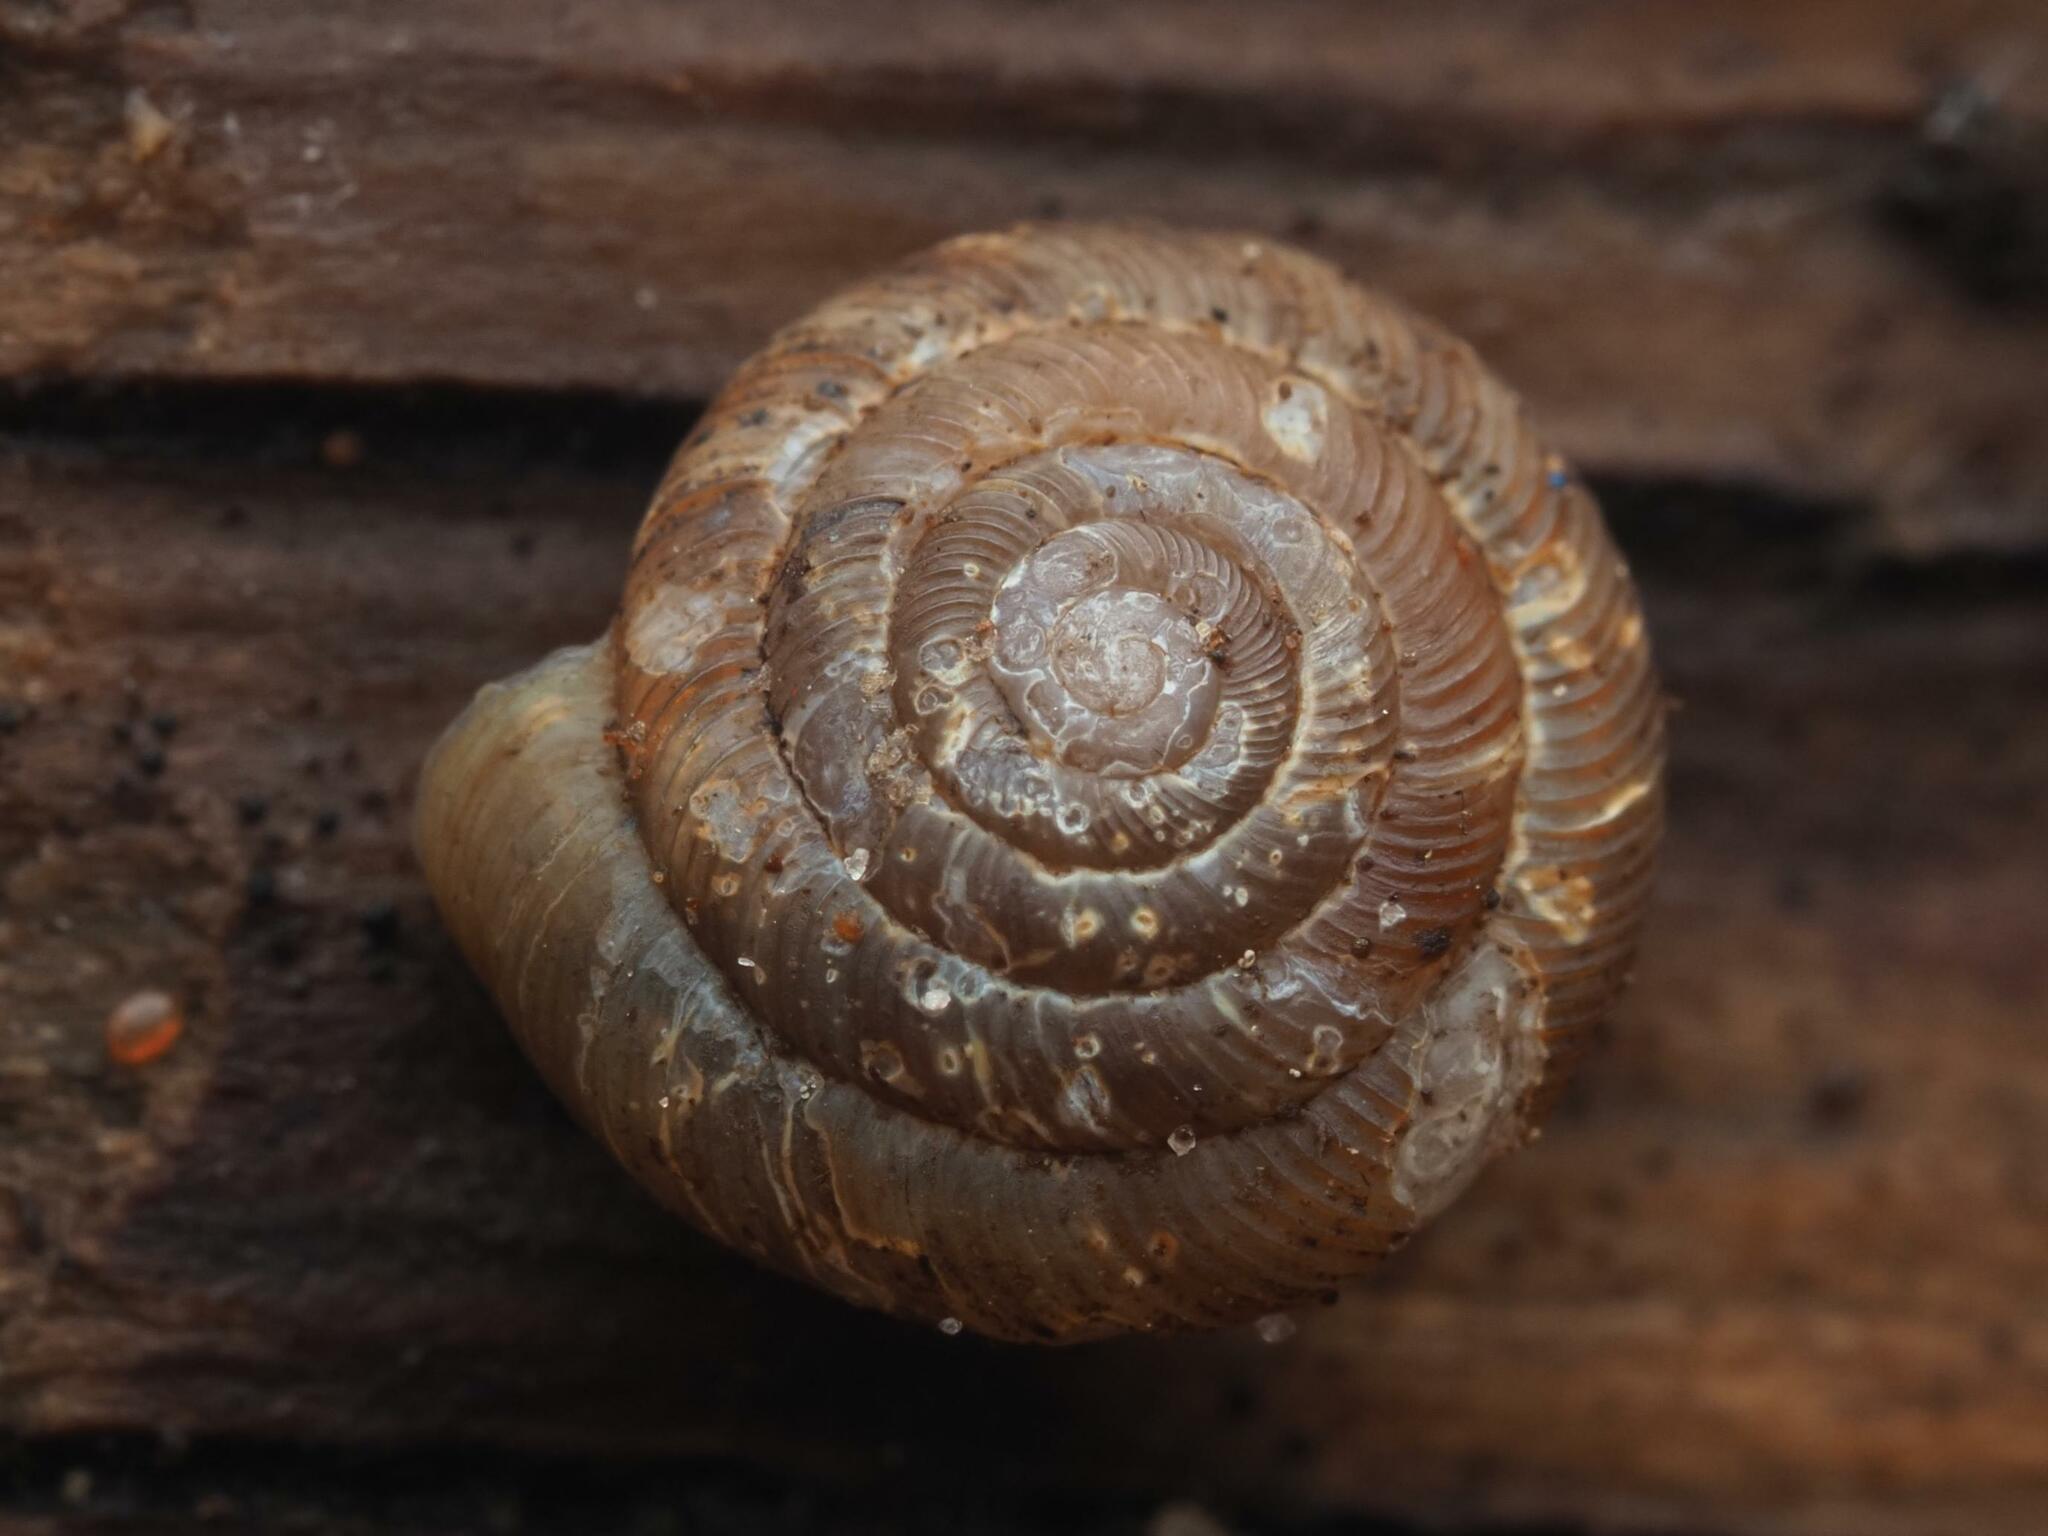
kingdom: Animalia
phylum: Mollusca
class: Gastropoda
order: Stylommatophora
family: Discidae
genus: Discus
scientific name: Discus rotundatus
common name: Rounded snail
